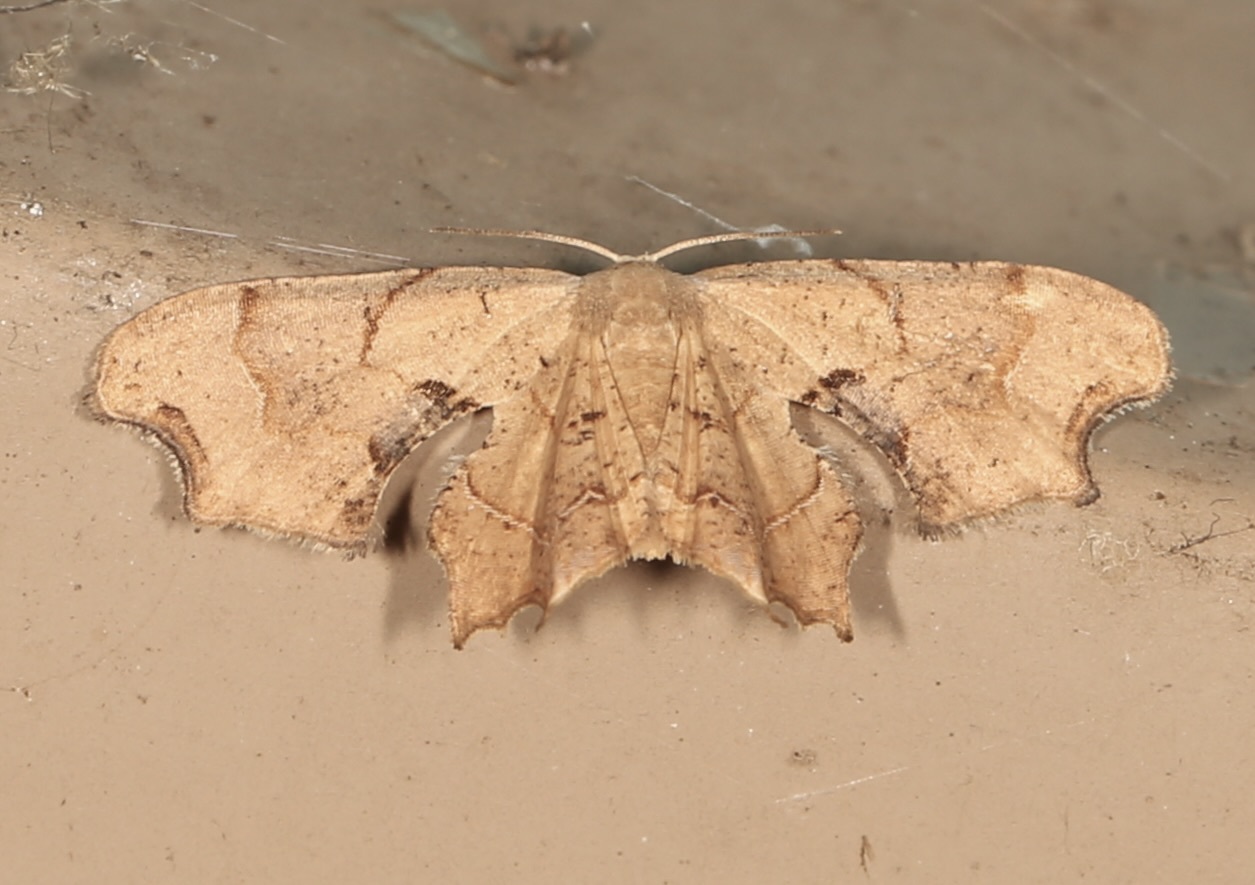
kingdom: Animalia
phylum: Arthropoda
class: Insecta
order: Lepidoptera
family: Uraniidae
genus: Epiplema
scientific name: Epiplema Calledapteryx dryopterata
